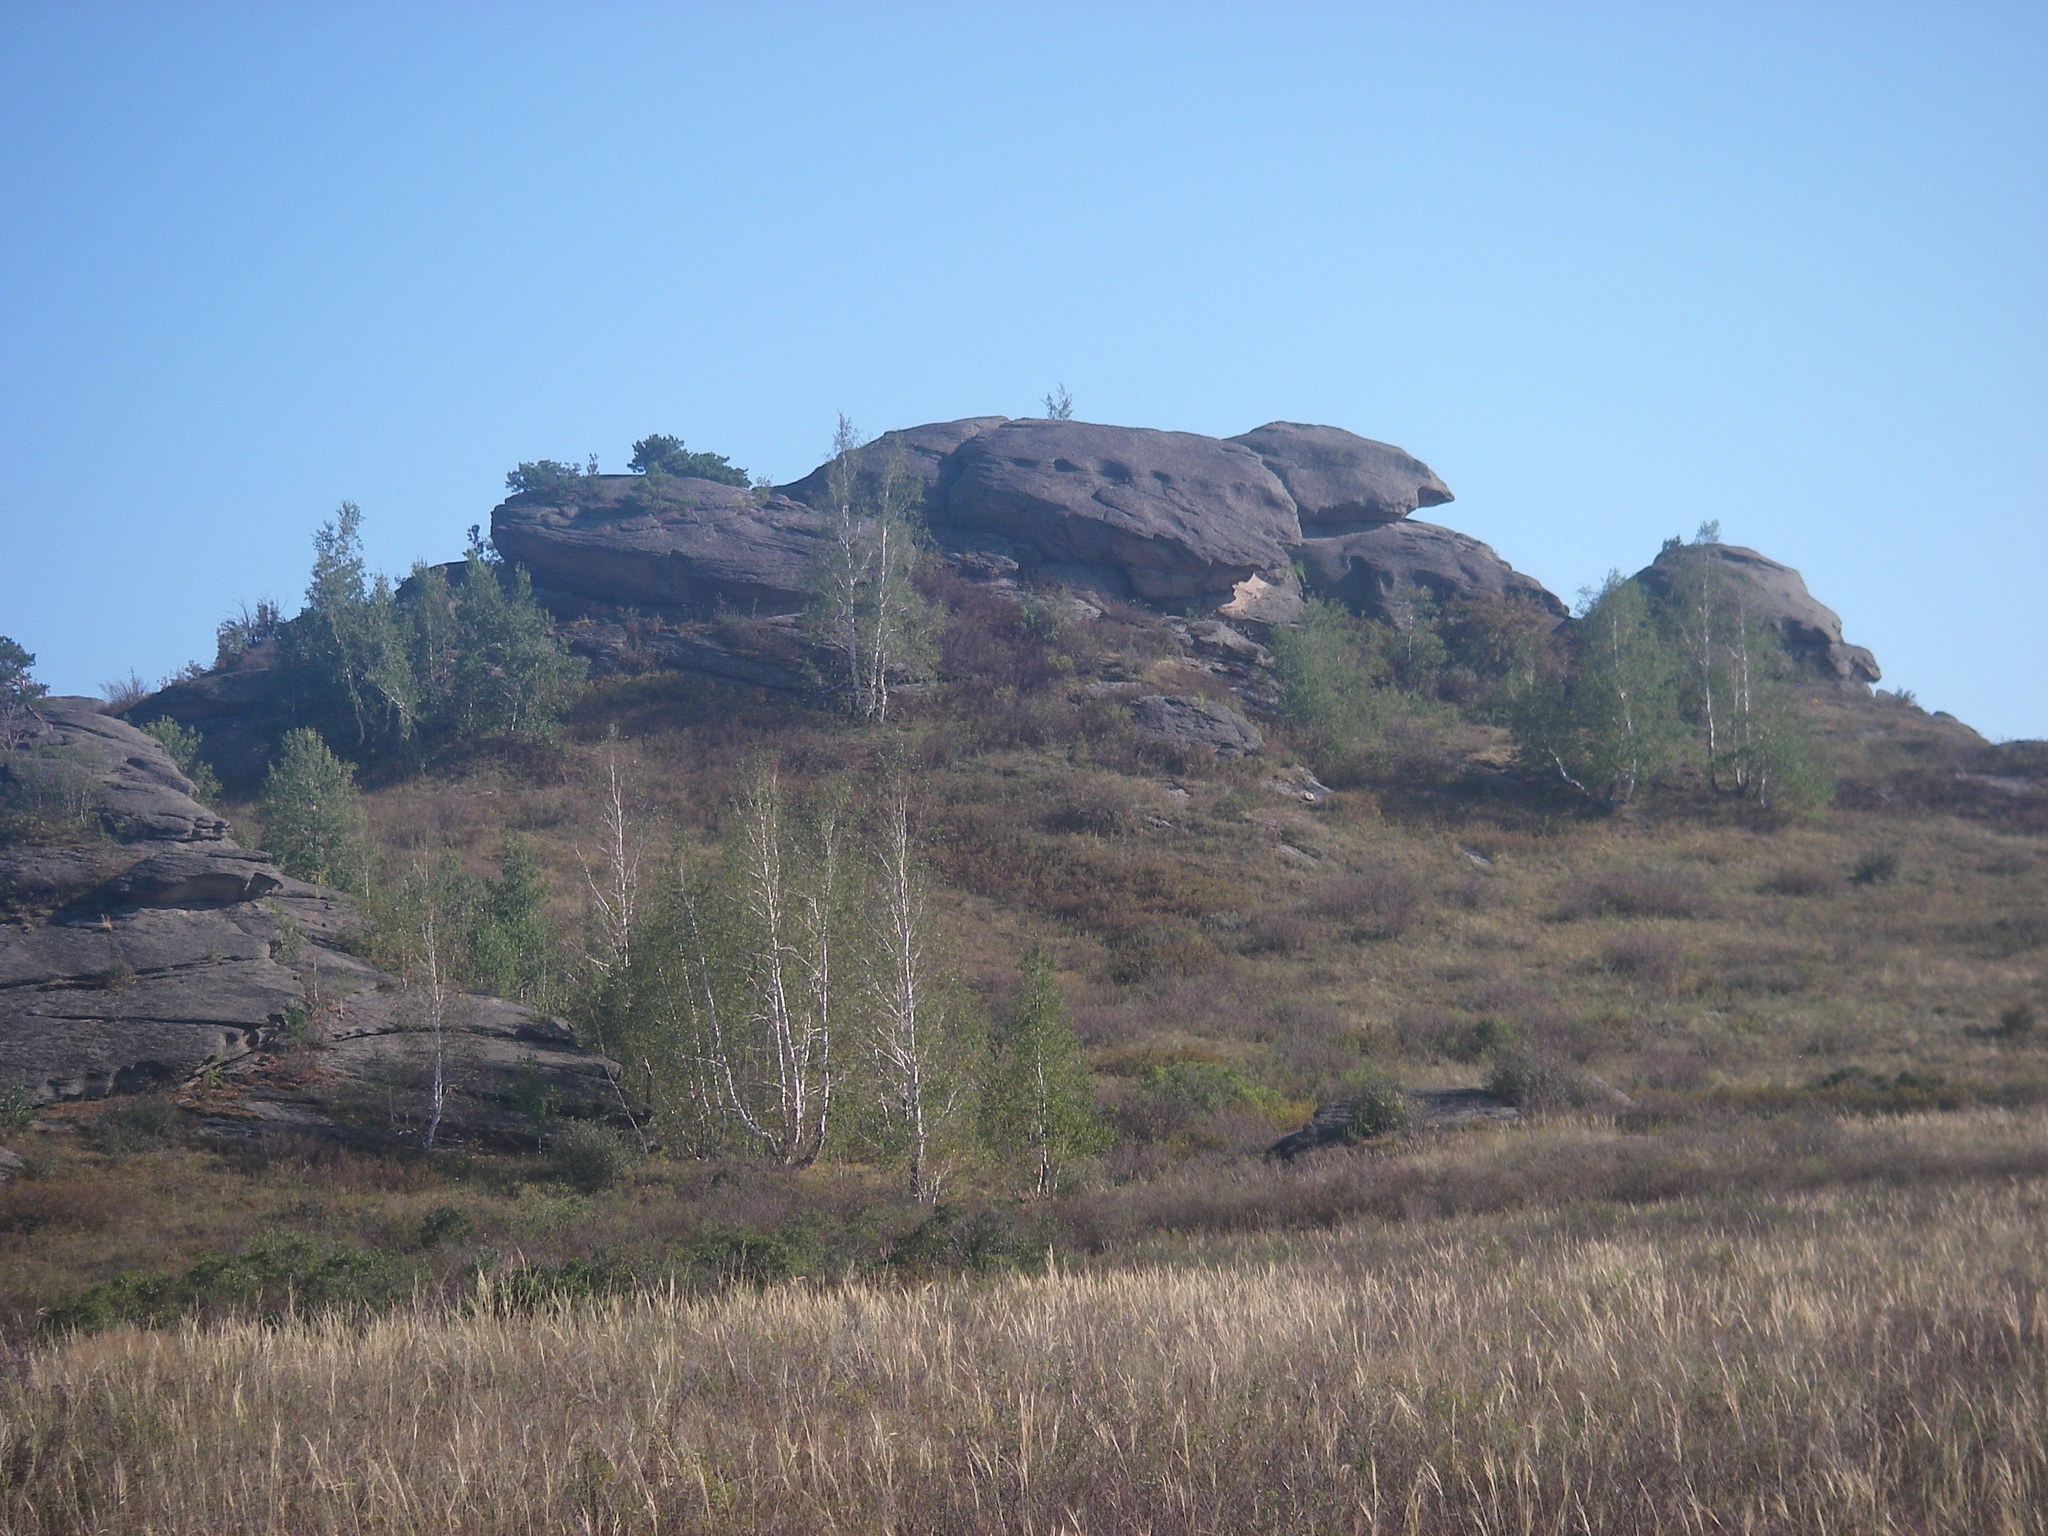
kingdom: Plantae
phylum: Tracheophyta
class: Magnoliopsida
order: Fagales
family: Betulaceae
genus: Betula
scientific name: Betula pendula
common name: Silver birch
